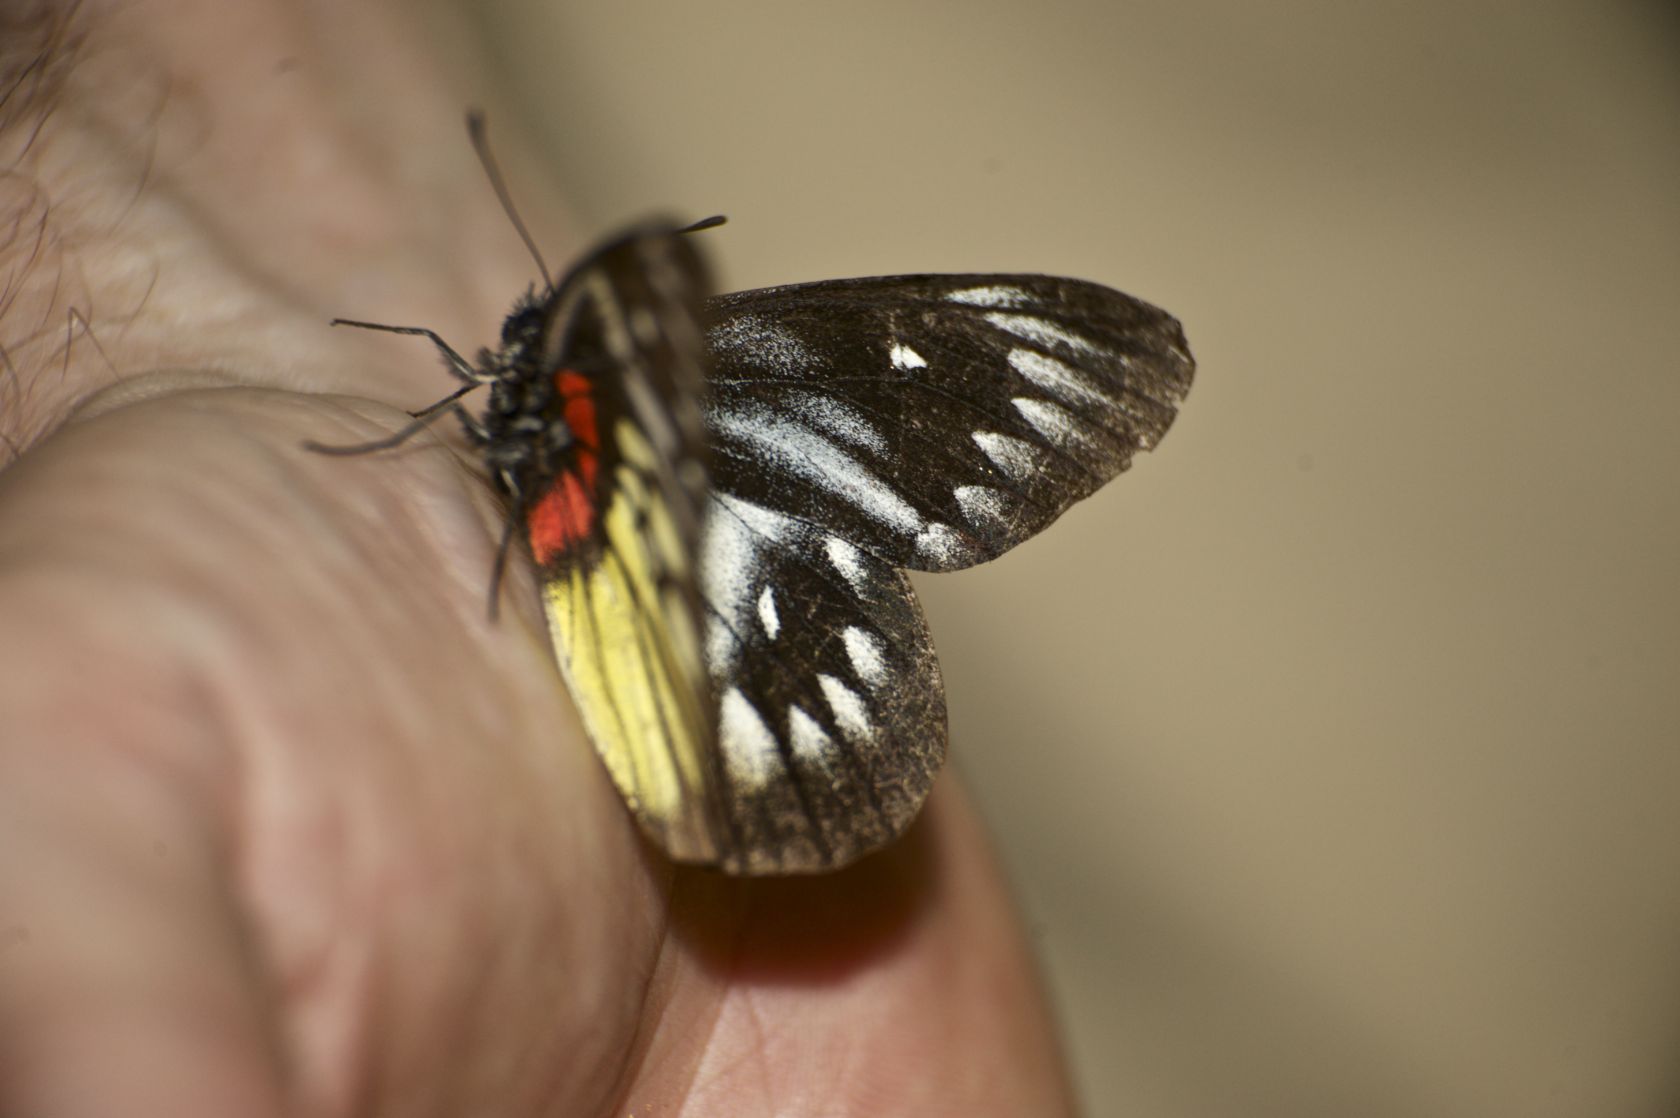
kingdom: Animalia
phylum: Arthropoda
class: Insecta
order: Lepidoptera
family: Pieridae
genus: Delias
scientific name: Delias pasithoe
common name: Red-base jezebel
